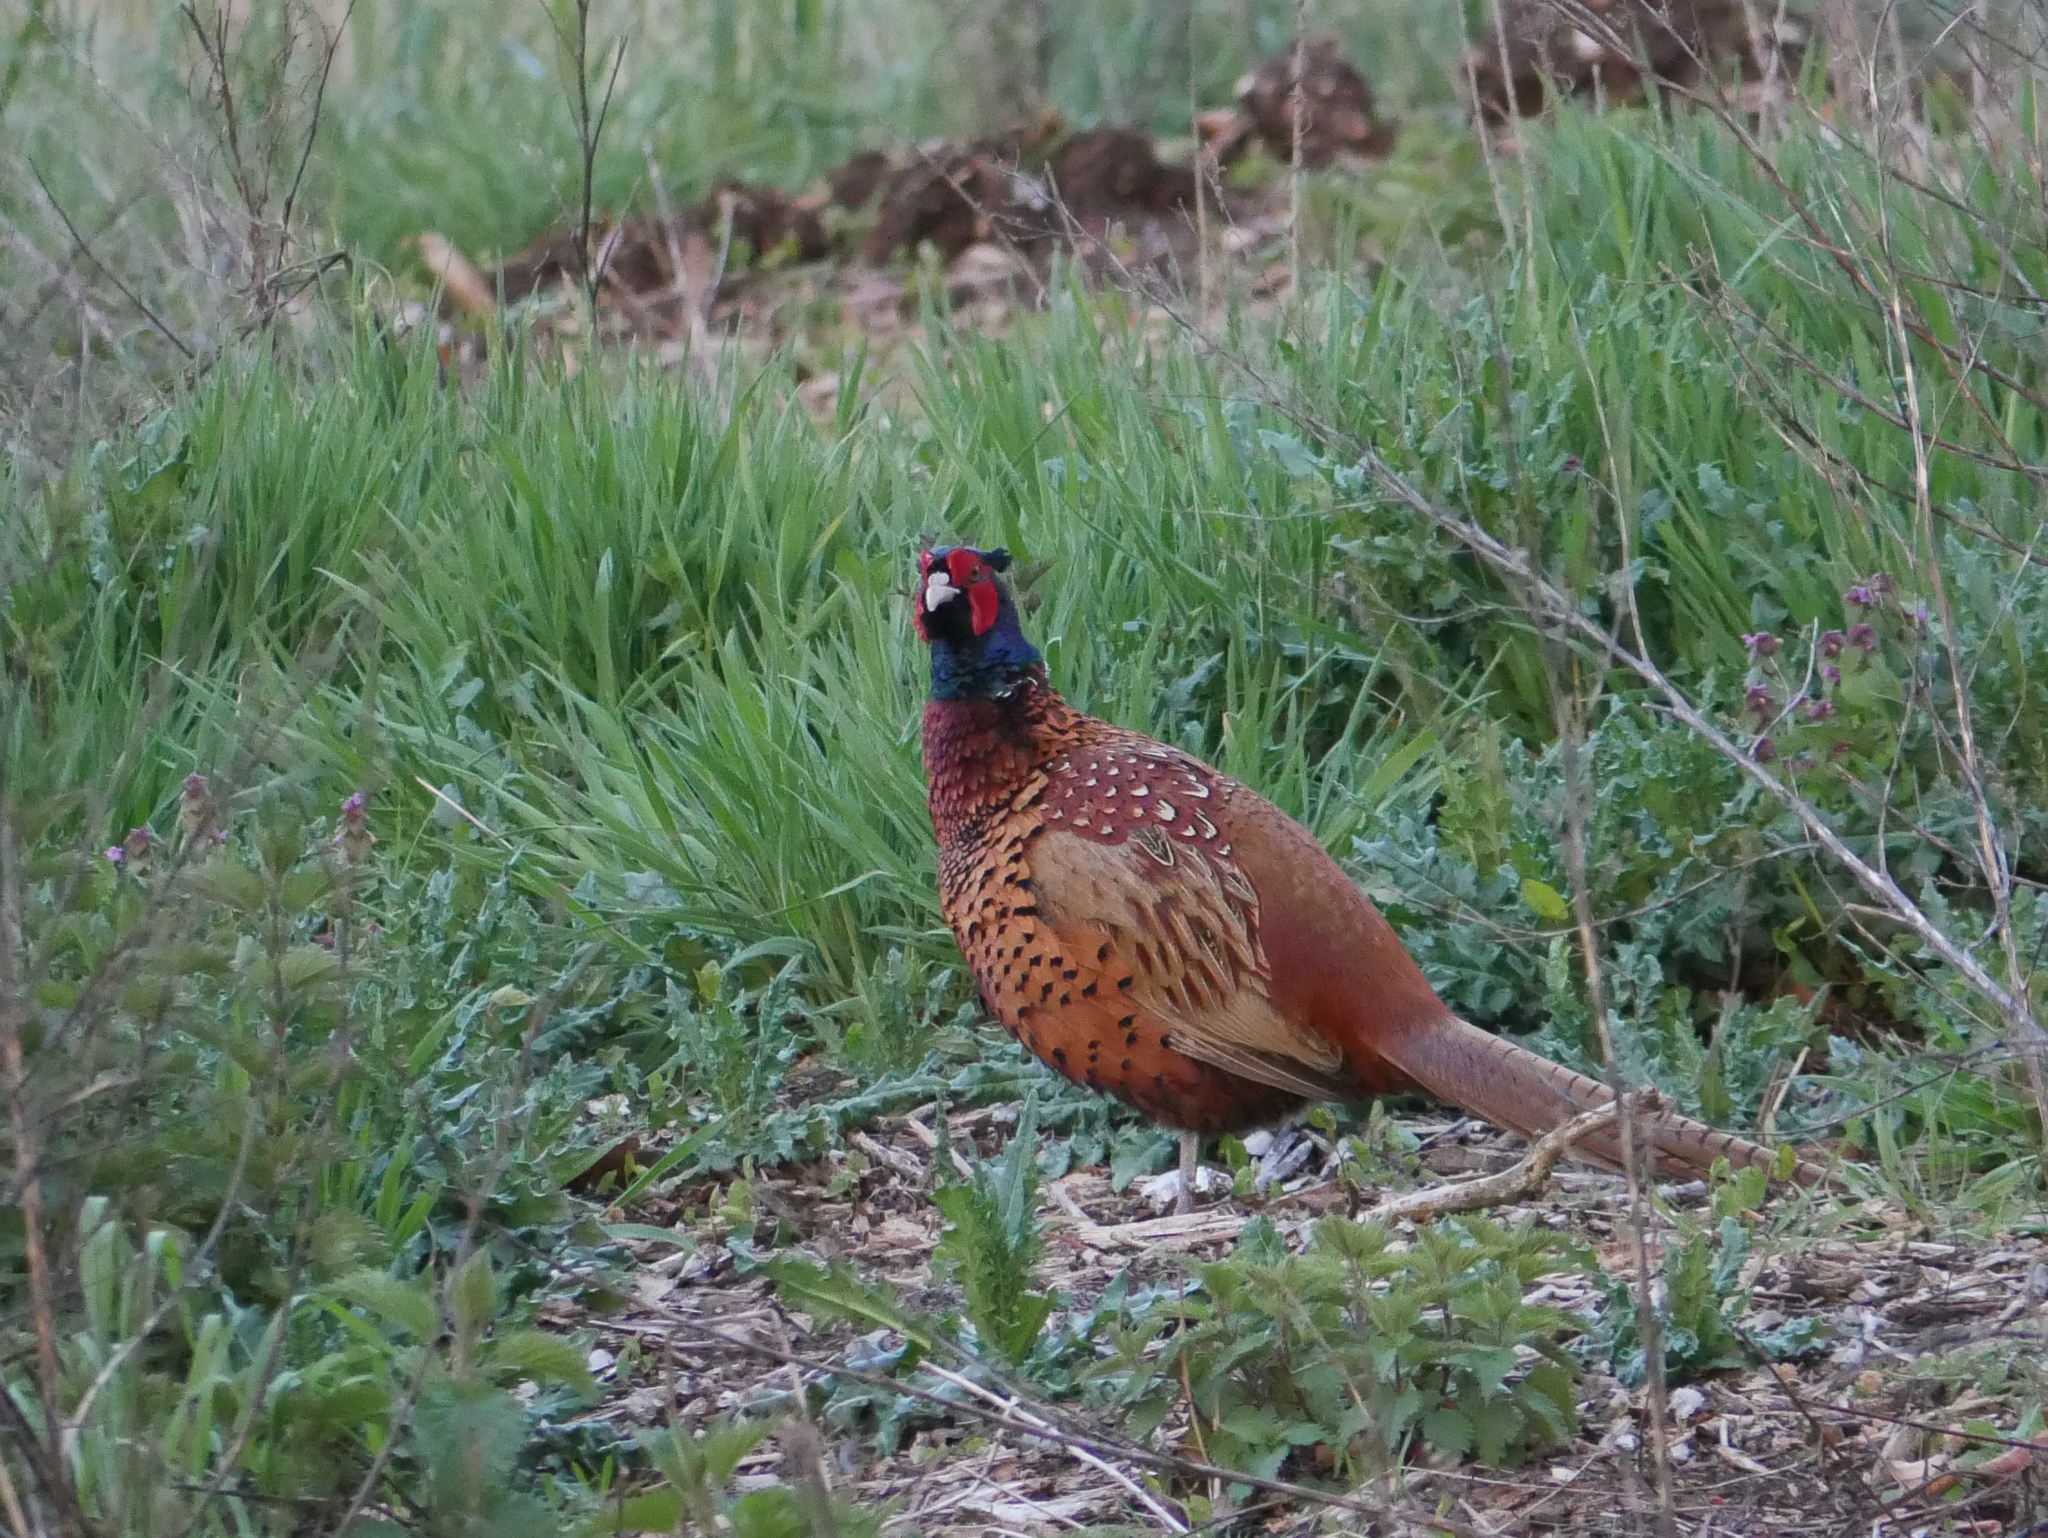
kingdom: Animalia
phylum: Chordata
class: Aves
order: Galliformes
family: Phasianidae
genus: Phasianus
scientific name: Phasianus colchicus
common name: Common pheasant
